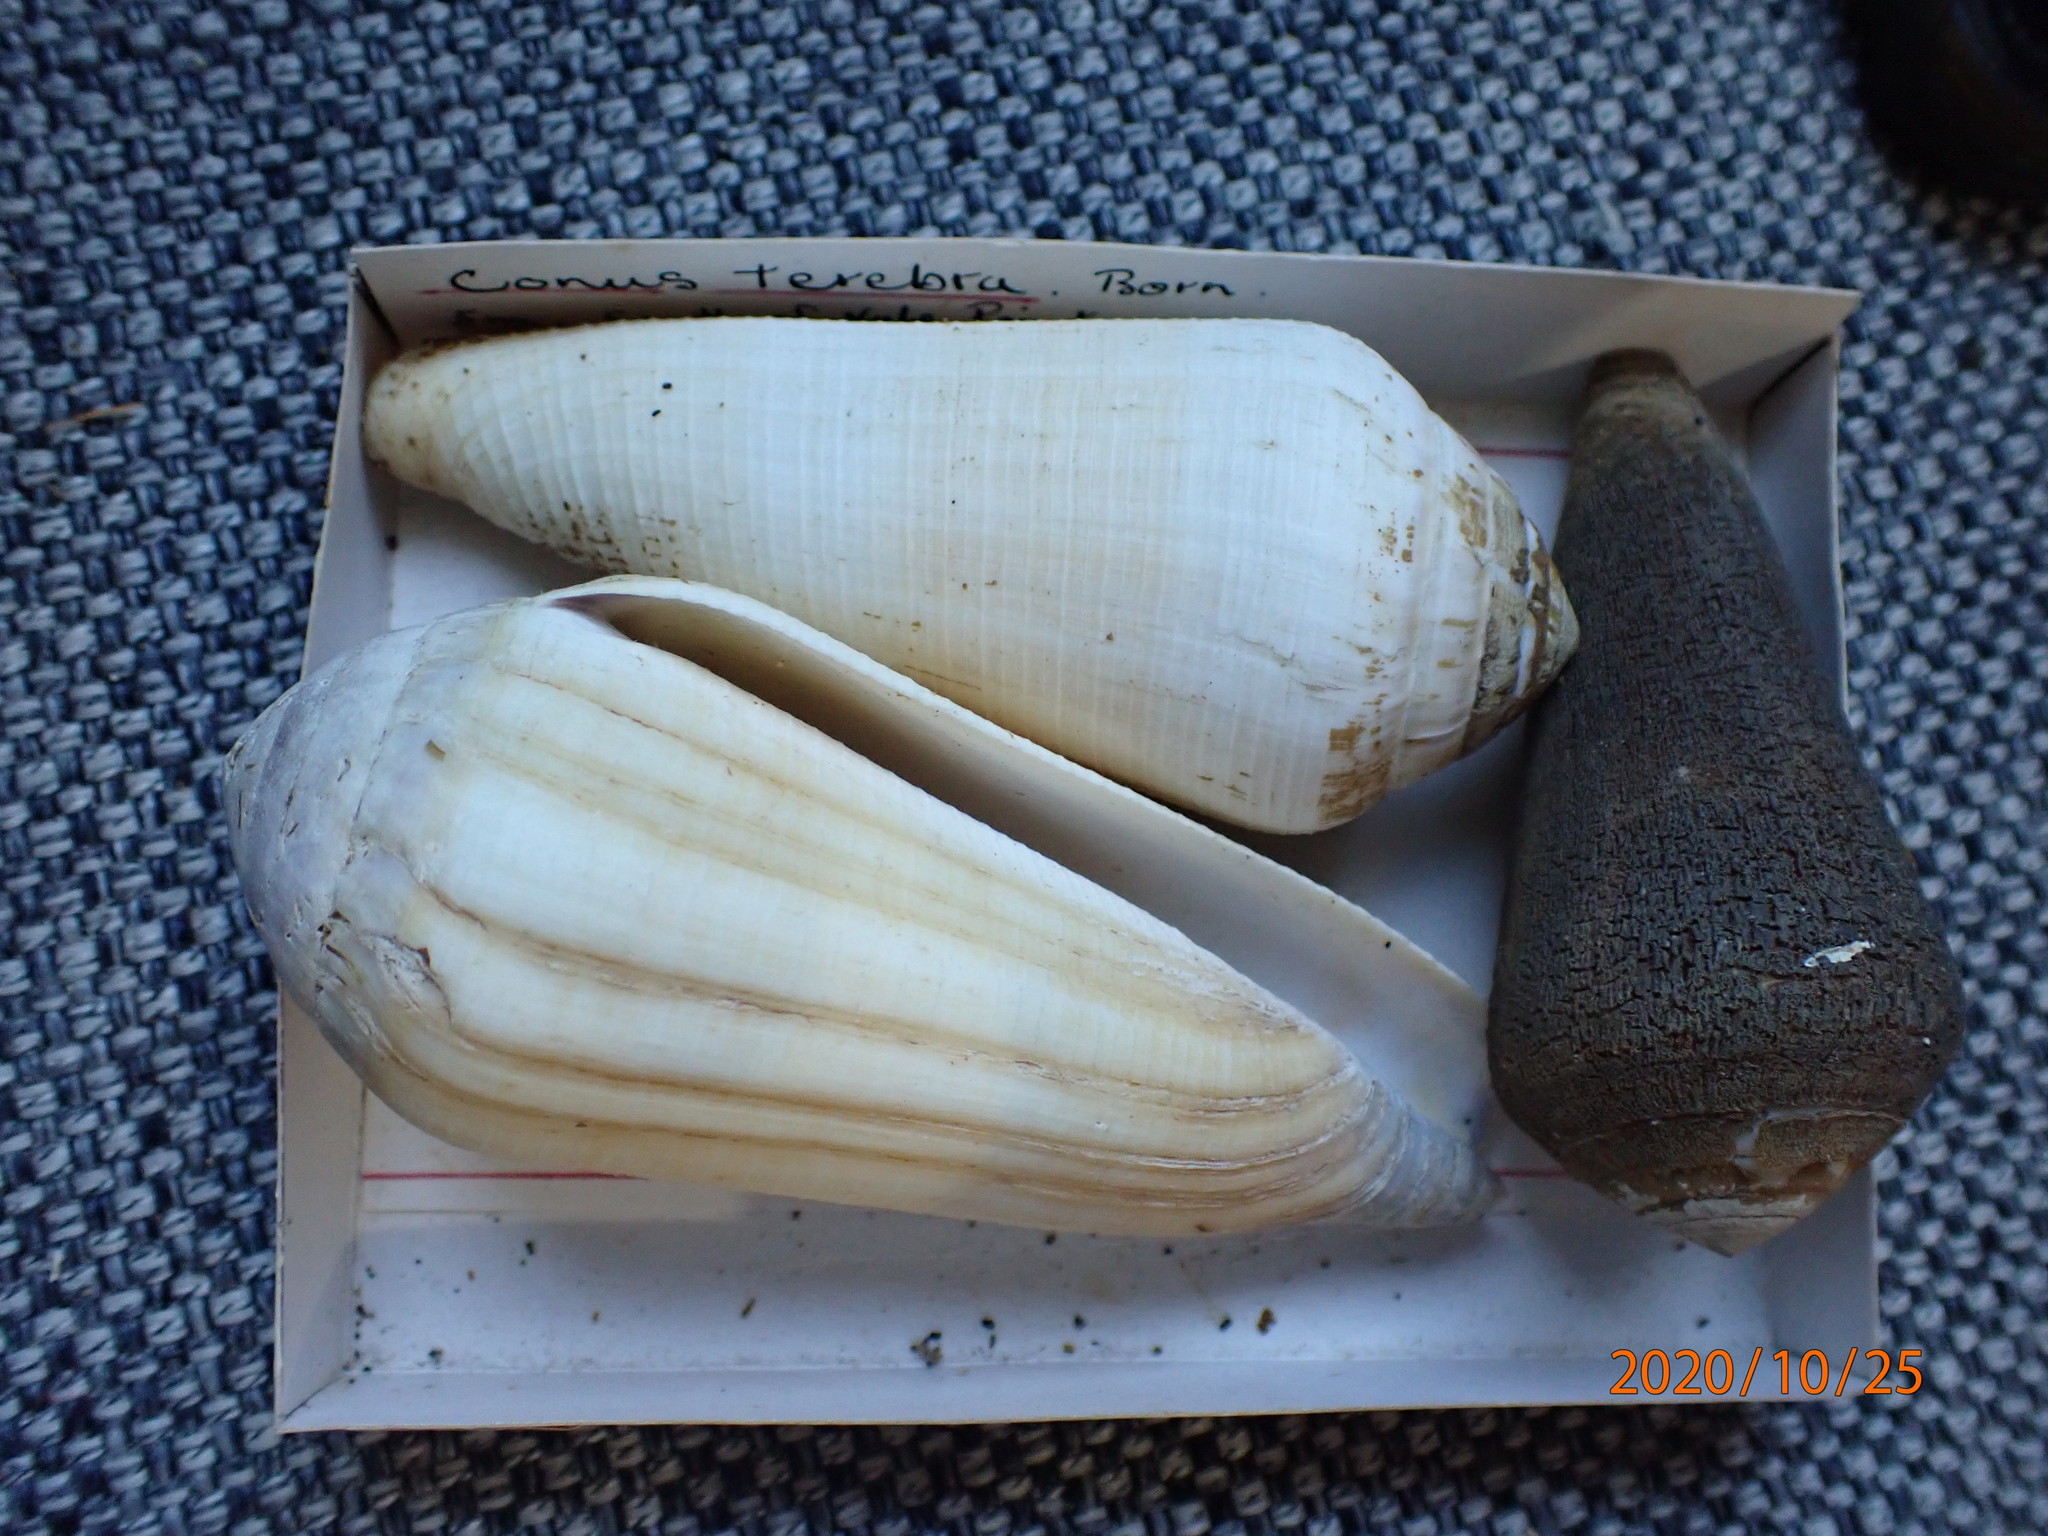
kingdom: Animalia
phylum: Mollusca
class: Gastropoda
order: Neogastropoda
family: Conidae
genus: Conus
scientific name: Conus terebra
